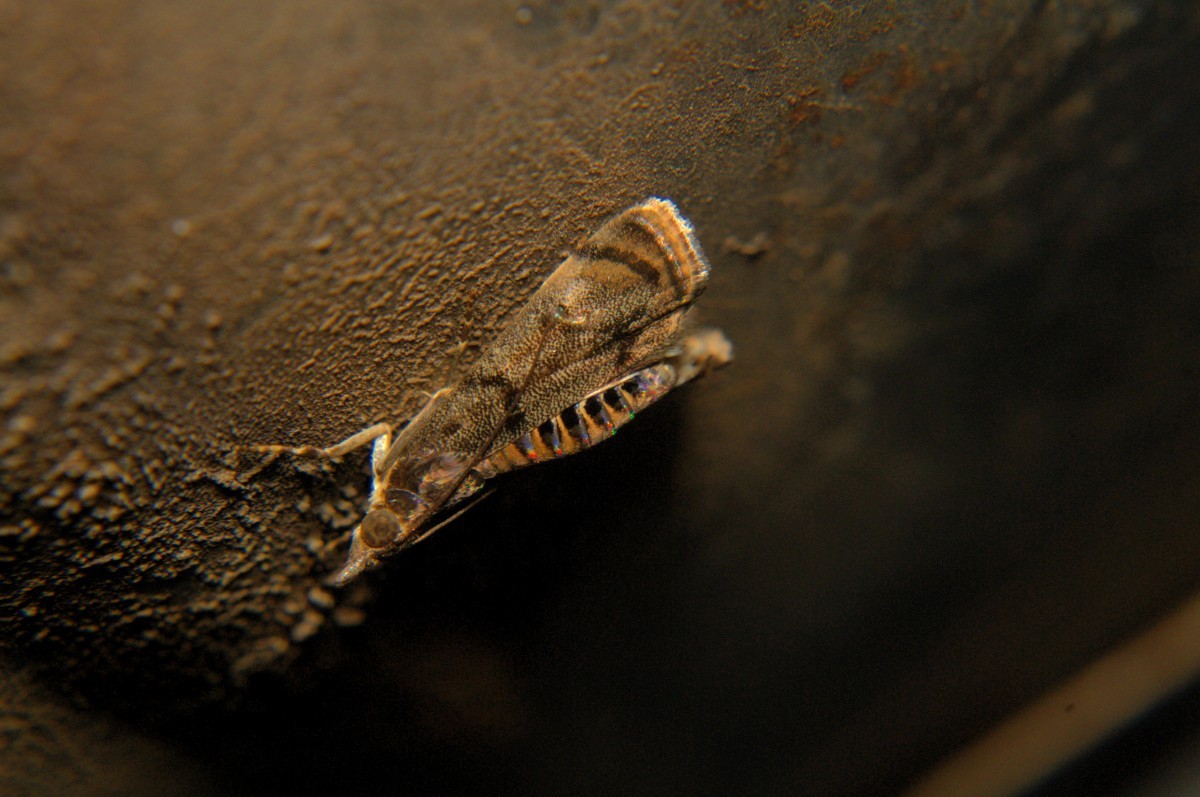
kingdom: Animalia
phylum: Arthropoda
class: Insecta
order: Lepidoptera
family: Crambidae
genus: Noorda
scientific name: Noorda blitealis
